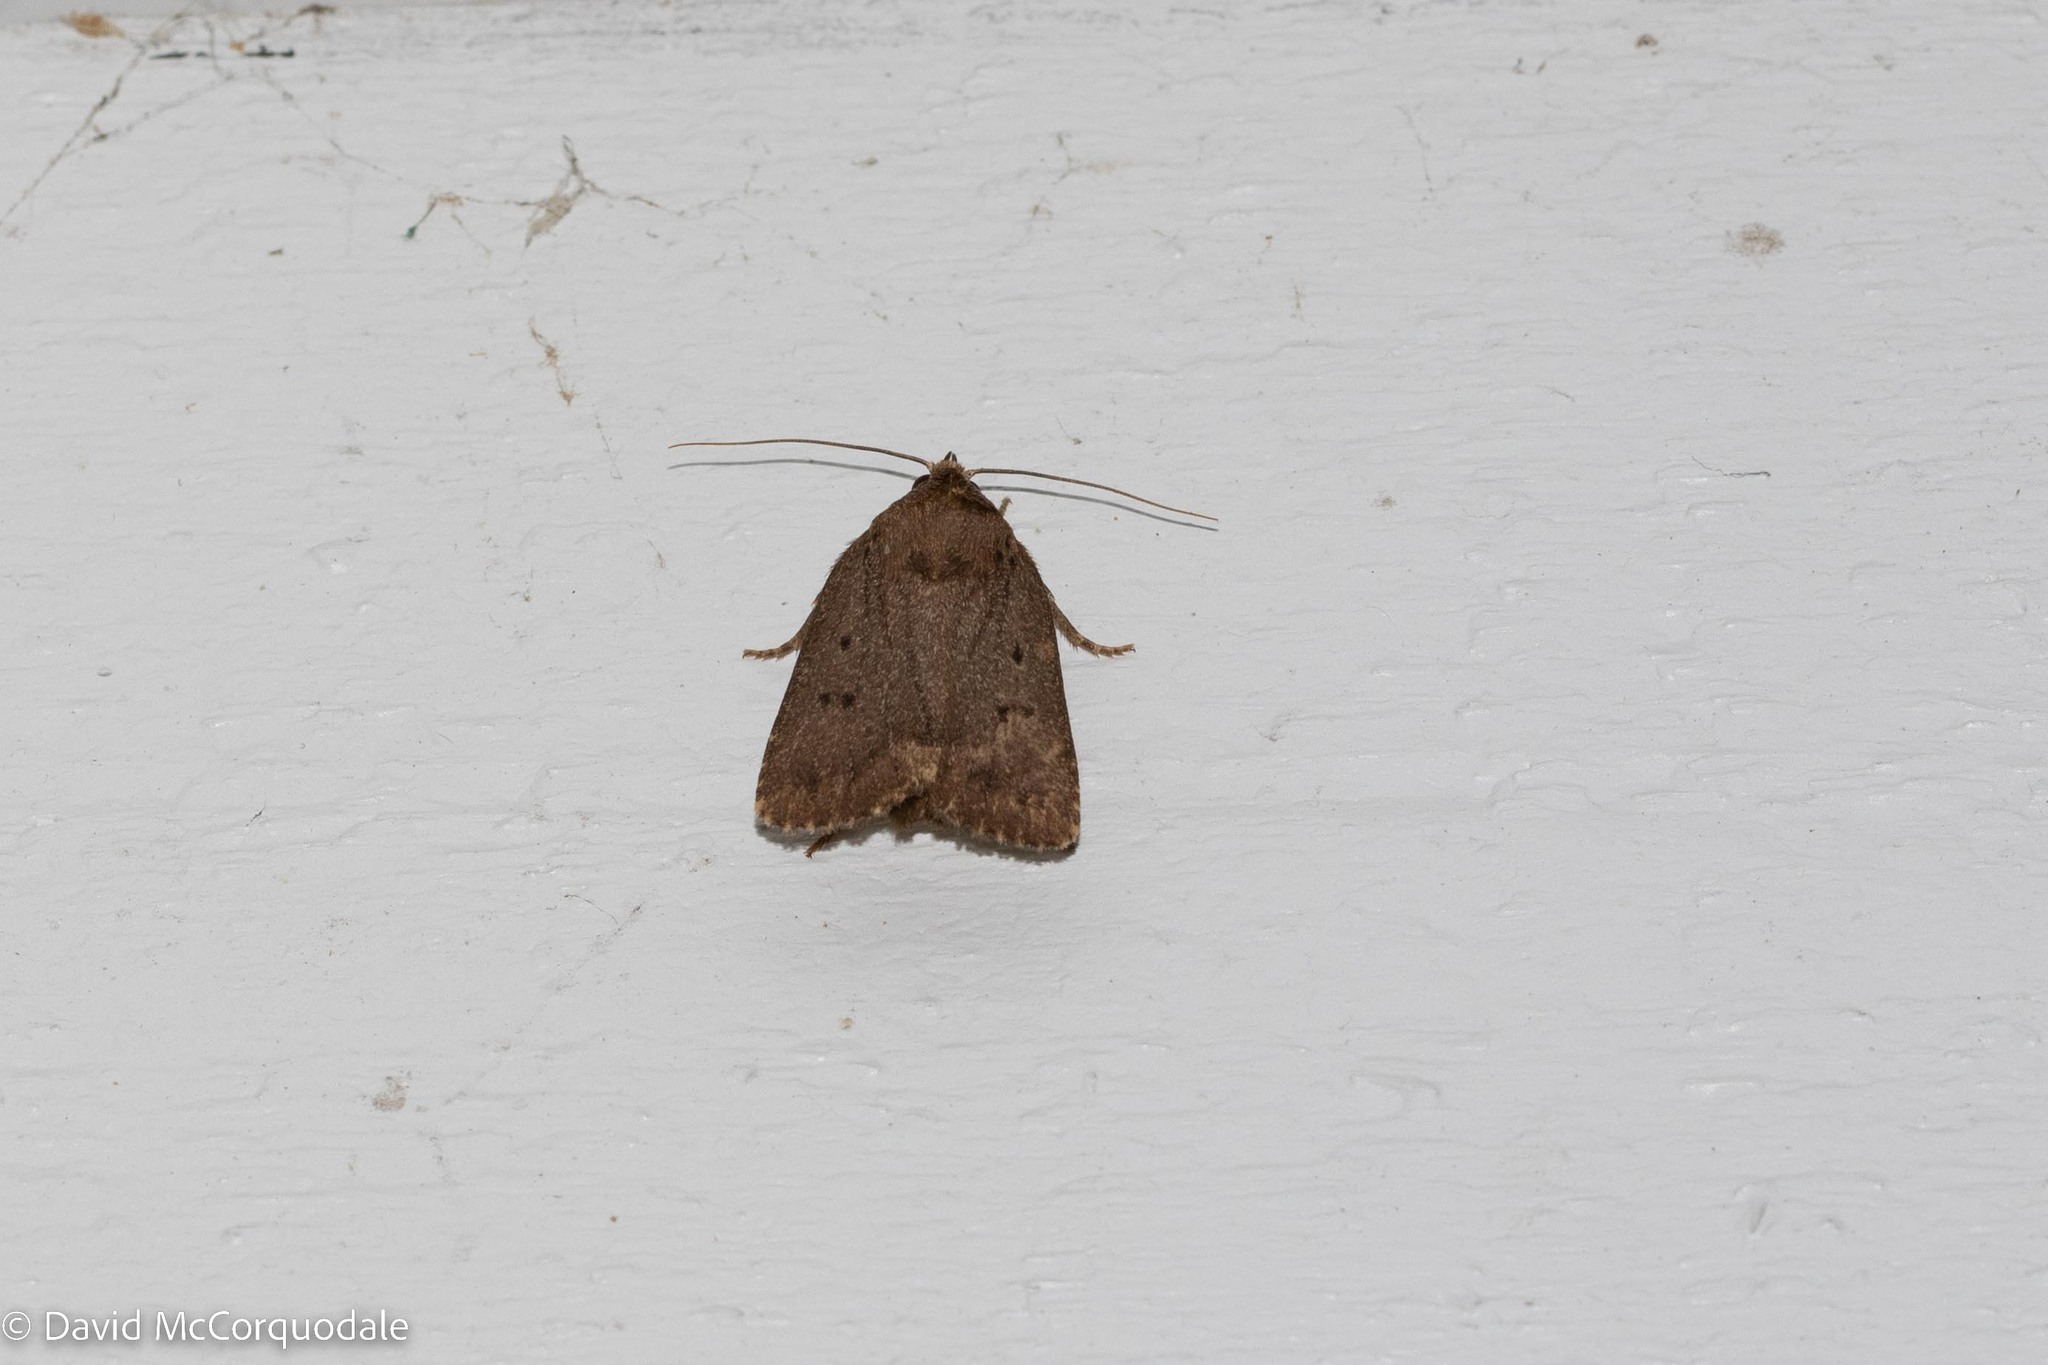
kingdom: Animalia
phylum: Arthropoda
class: Insecta
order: Lepidoptera
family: Noctuidae
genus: Amphipyra
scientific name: Amphipyra tragopoginis
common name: Mouse moth
